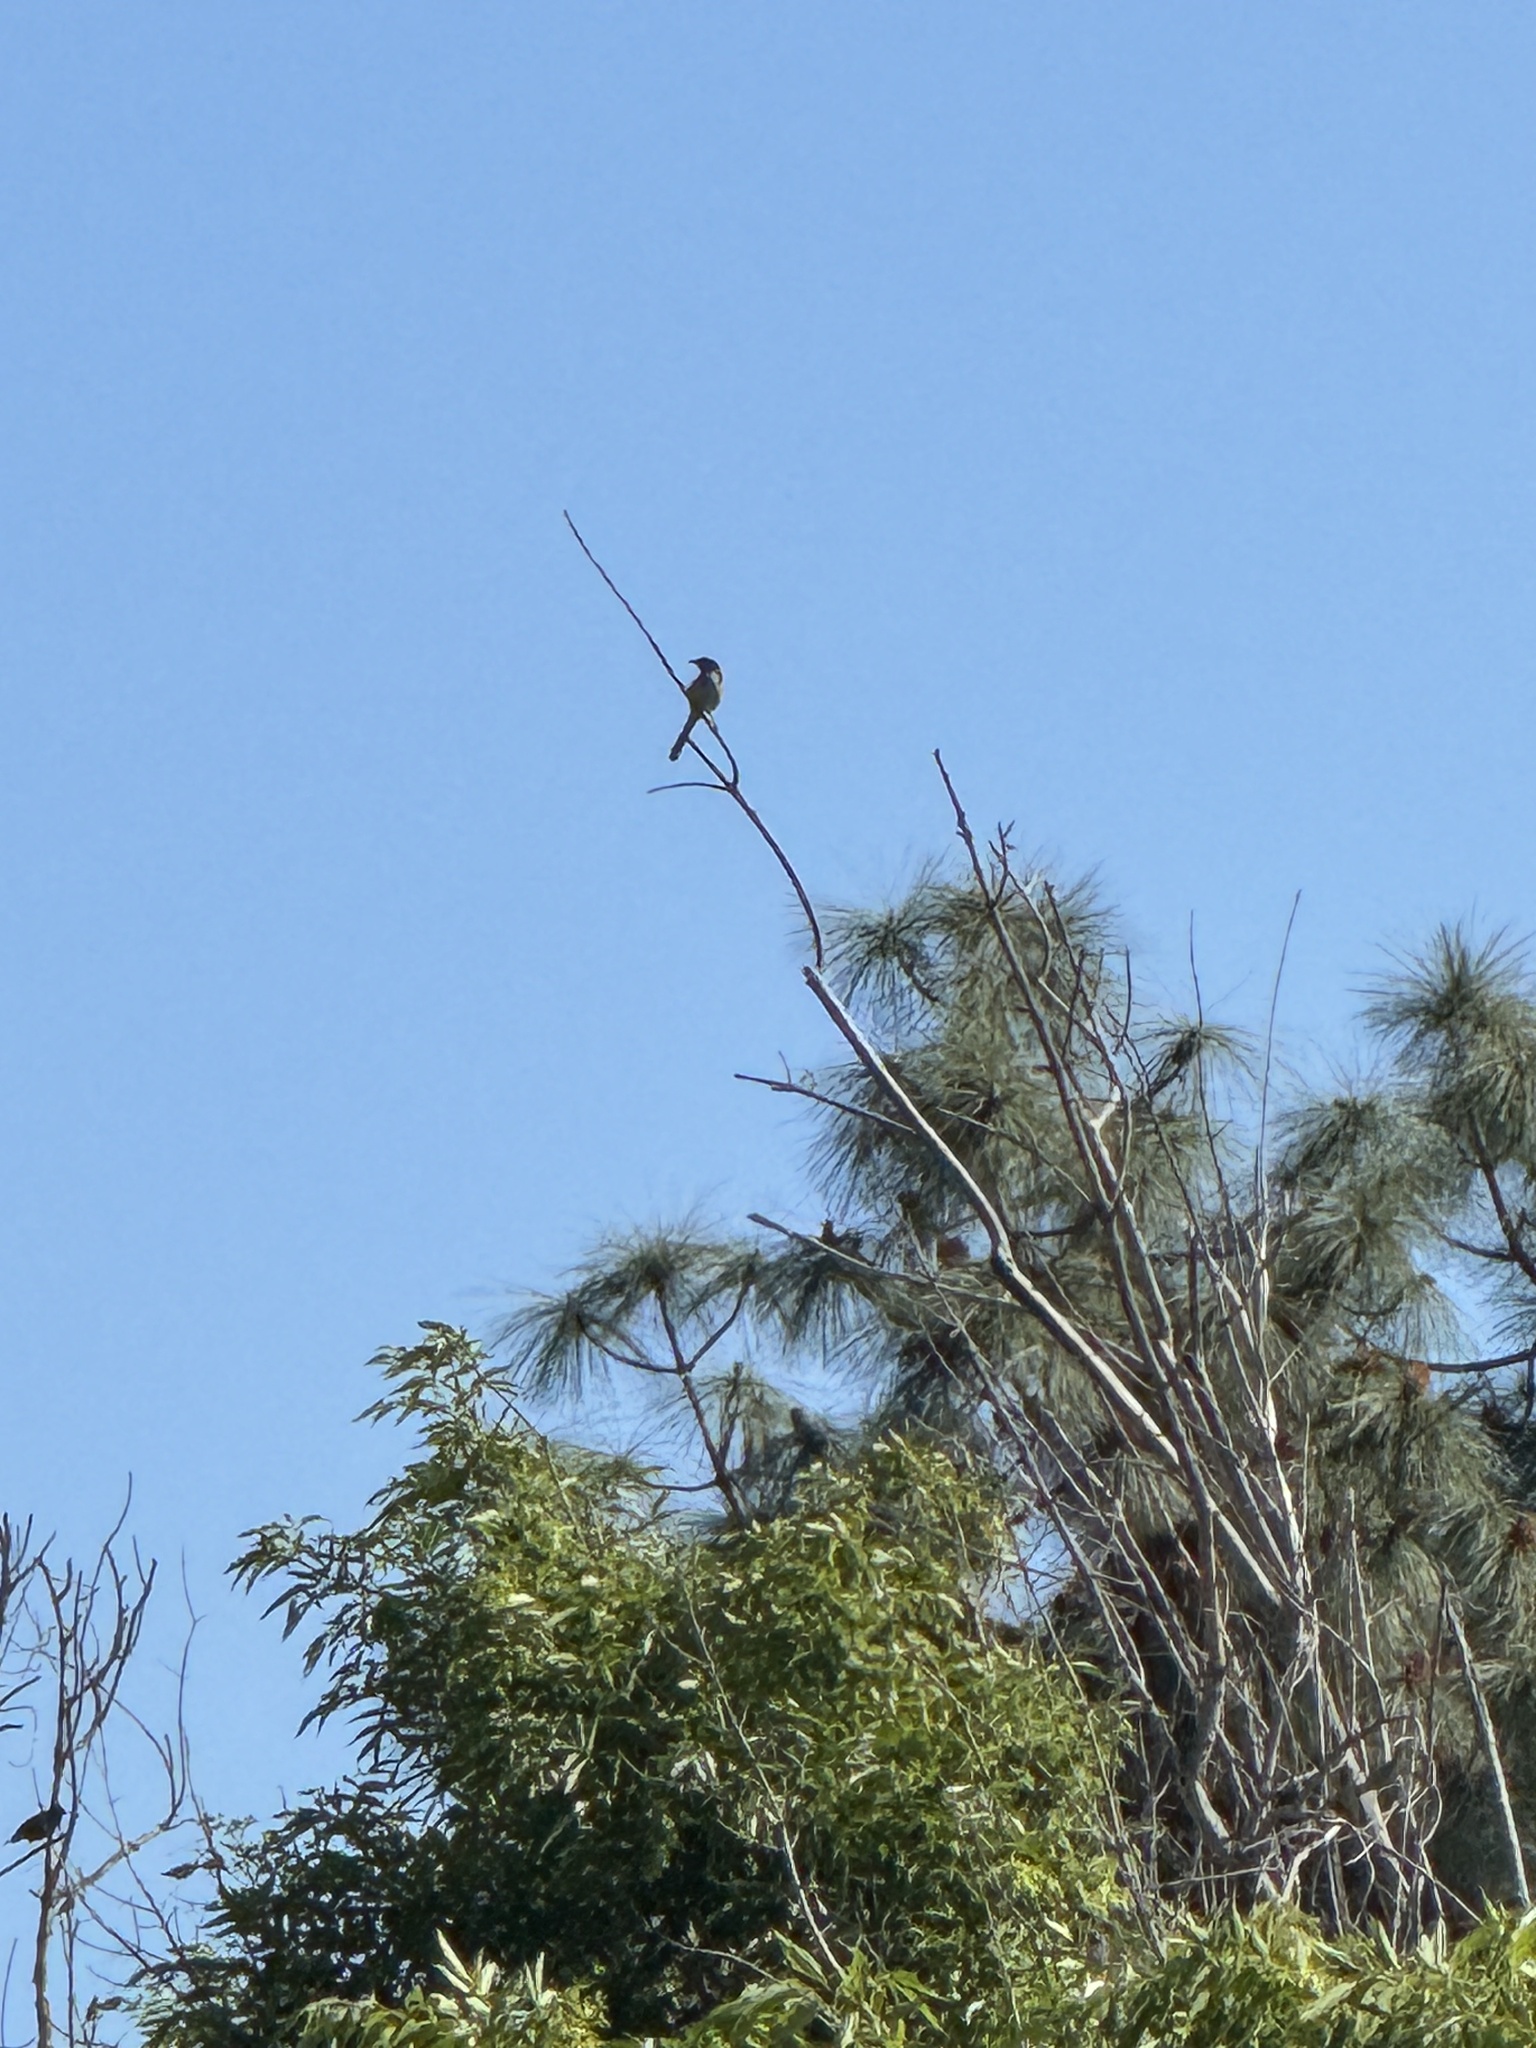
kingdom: Animalia
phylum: Chordata
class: Aves
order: Passeriformes
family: Corvidae
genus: Aphelocoma
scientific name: Aphelocoma californica
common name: California scrub-jay
